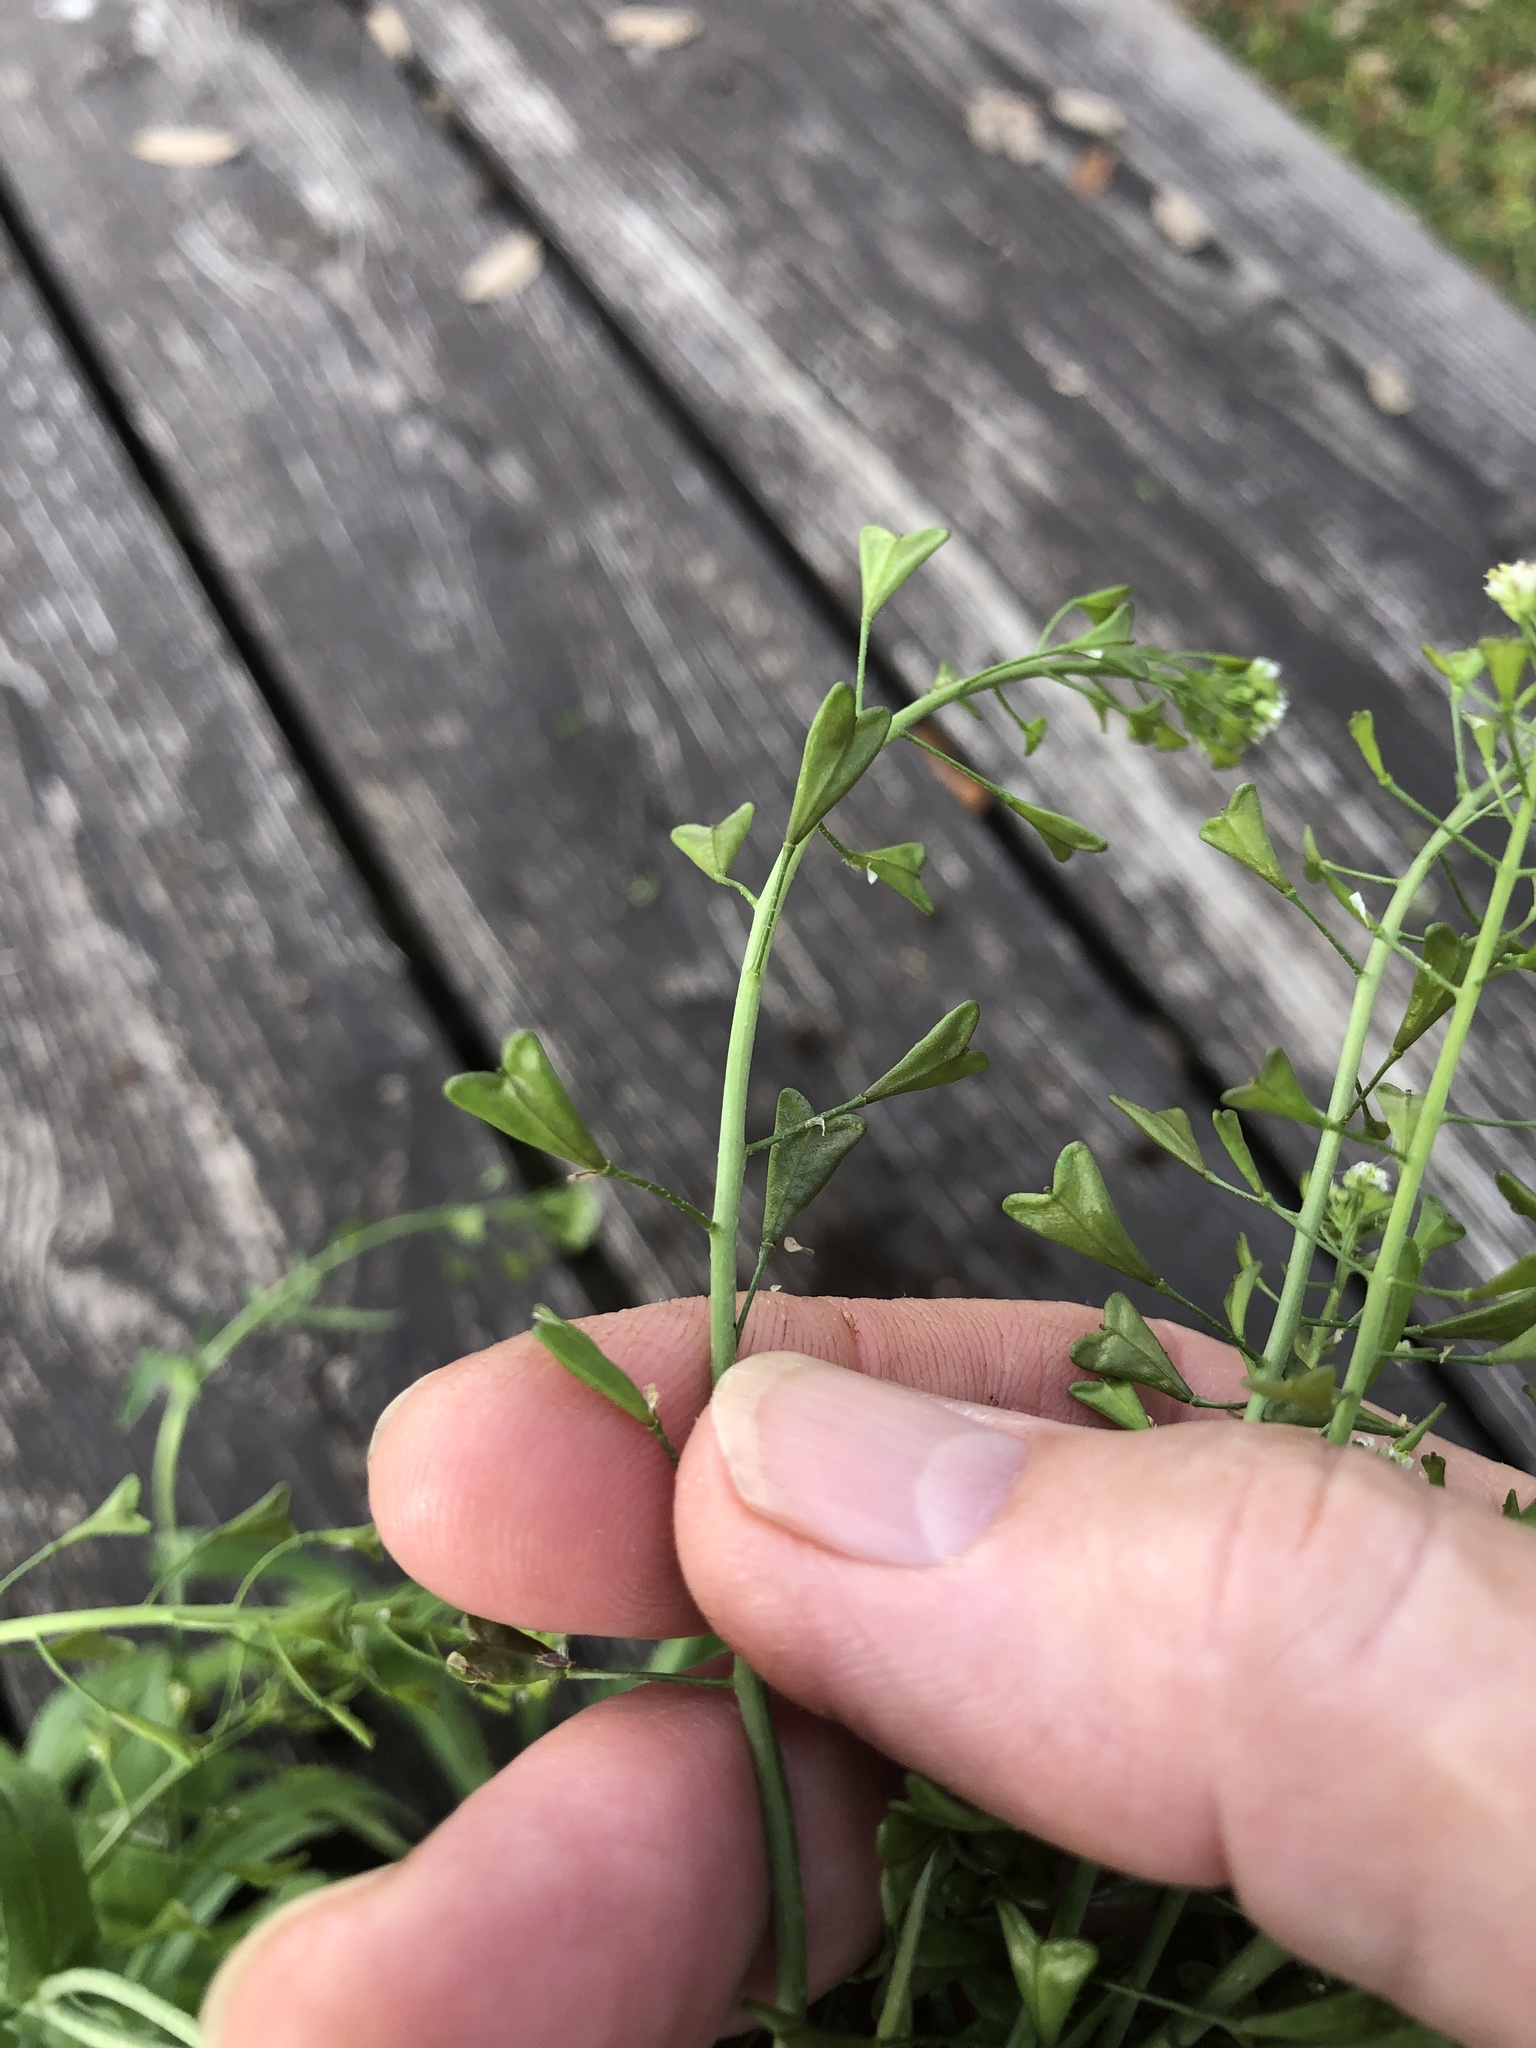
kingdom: Plantae
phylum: Tracheophyta
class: Magnoliopsida
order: Brassicales
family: Brassicaceae
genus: Capsella
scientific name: Capsella bursa-pastoris
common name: Shepherd's purse
